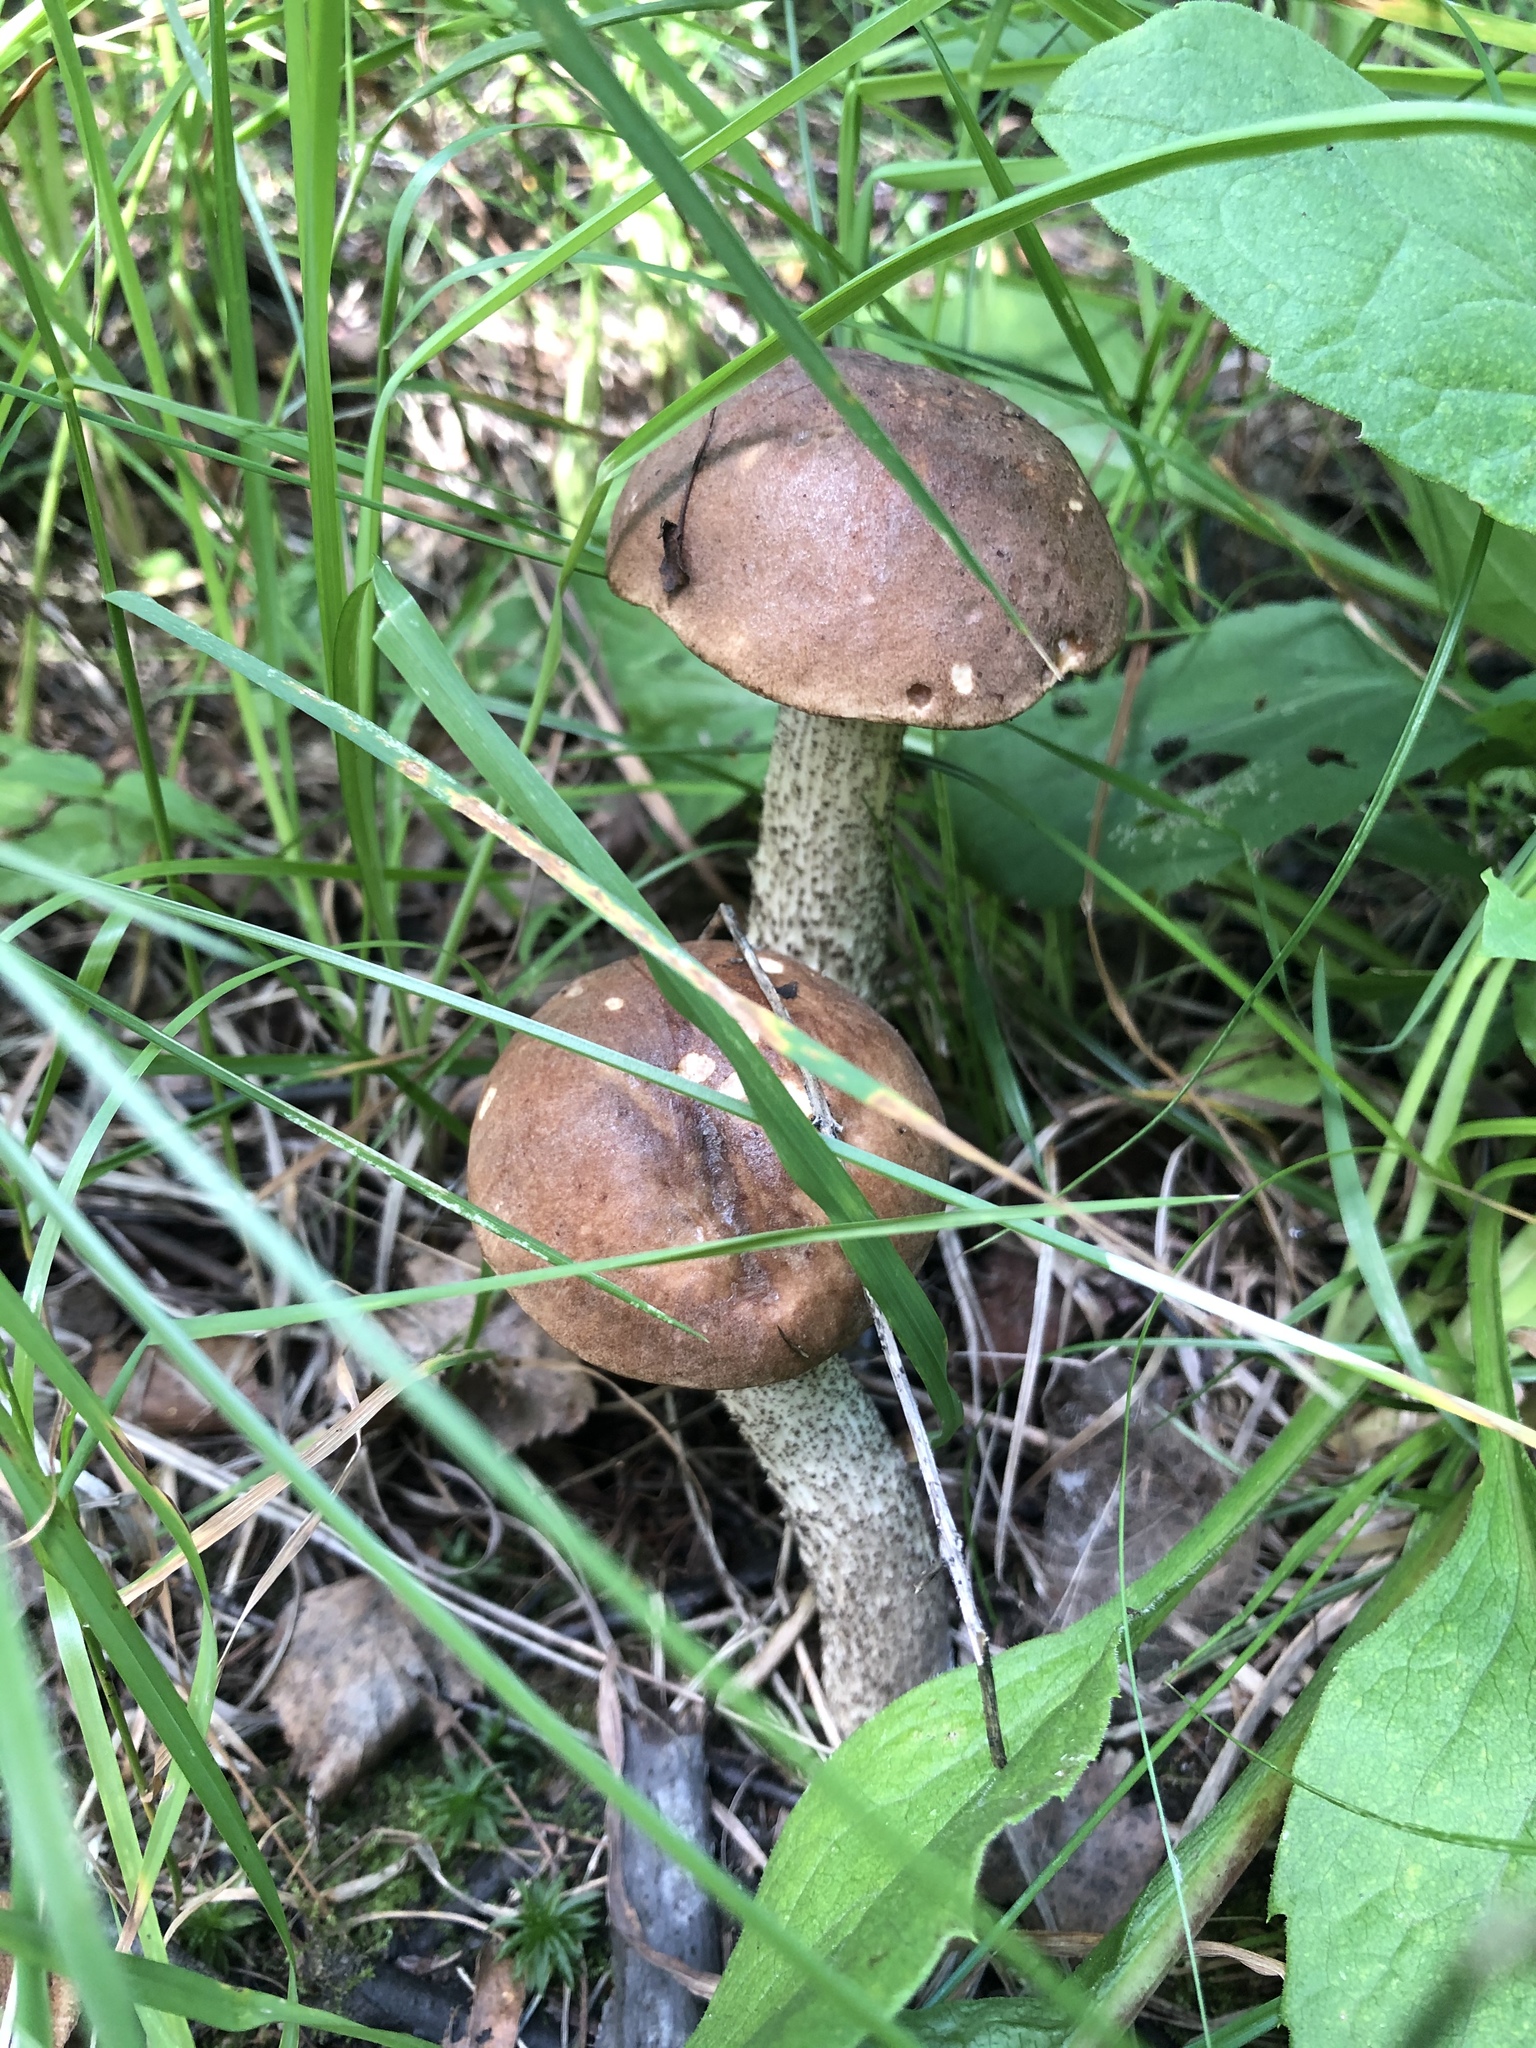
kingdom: Fungi
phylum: Basidiomycota
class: Agaricomycetes
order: Boletales
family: Boletaceae
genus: Leccinum
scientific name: Leccinum scabrum
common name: Blushing bolete
